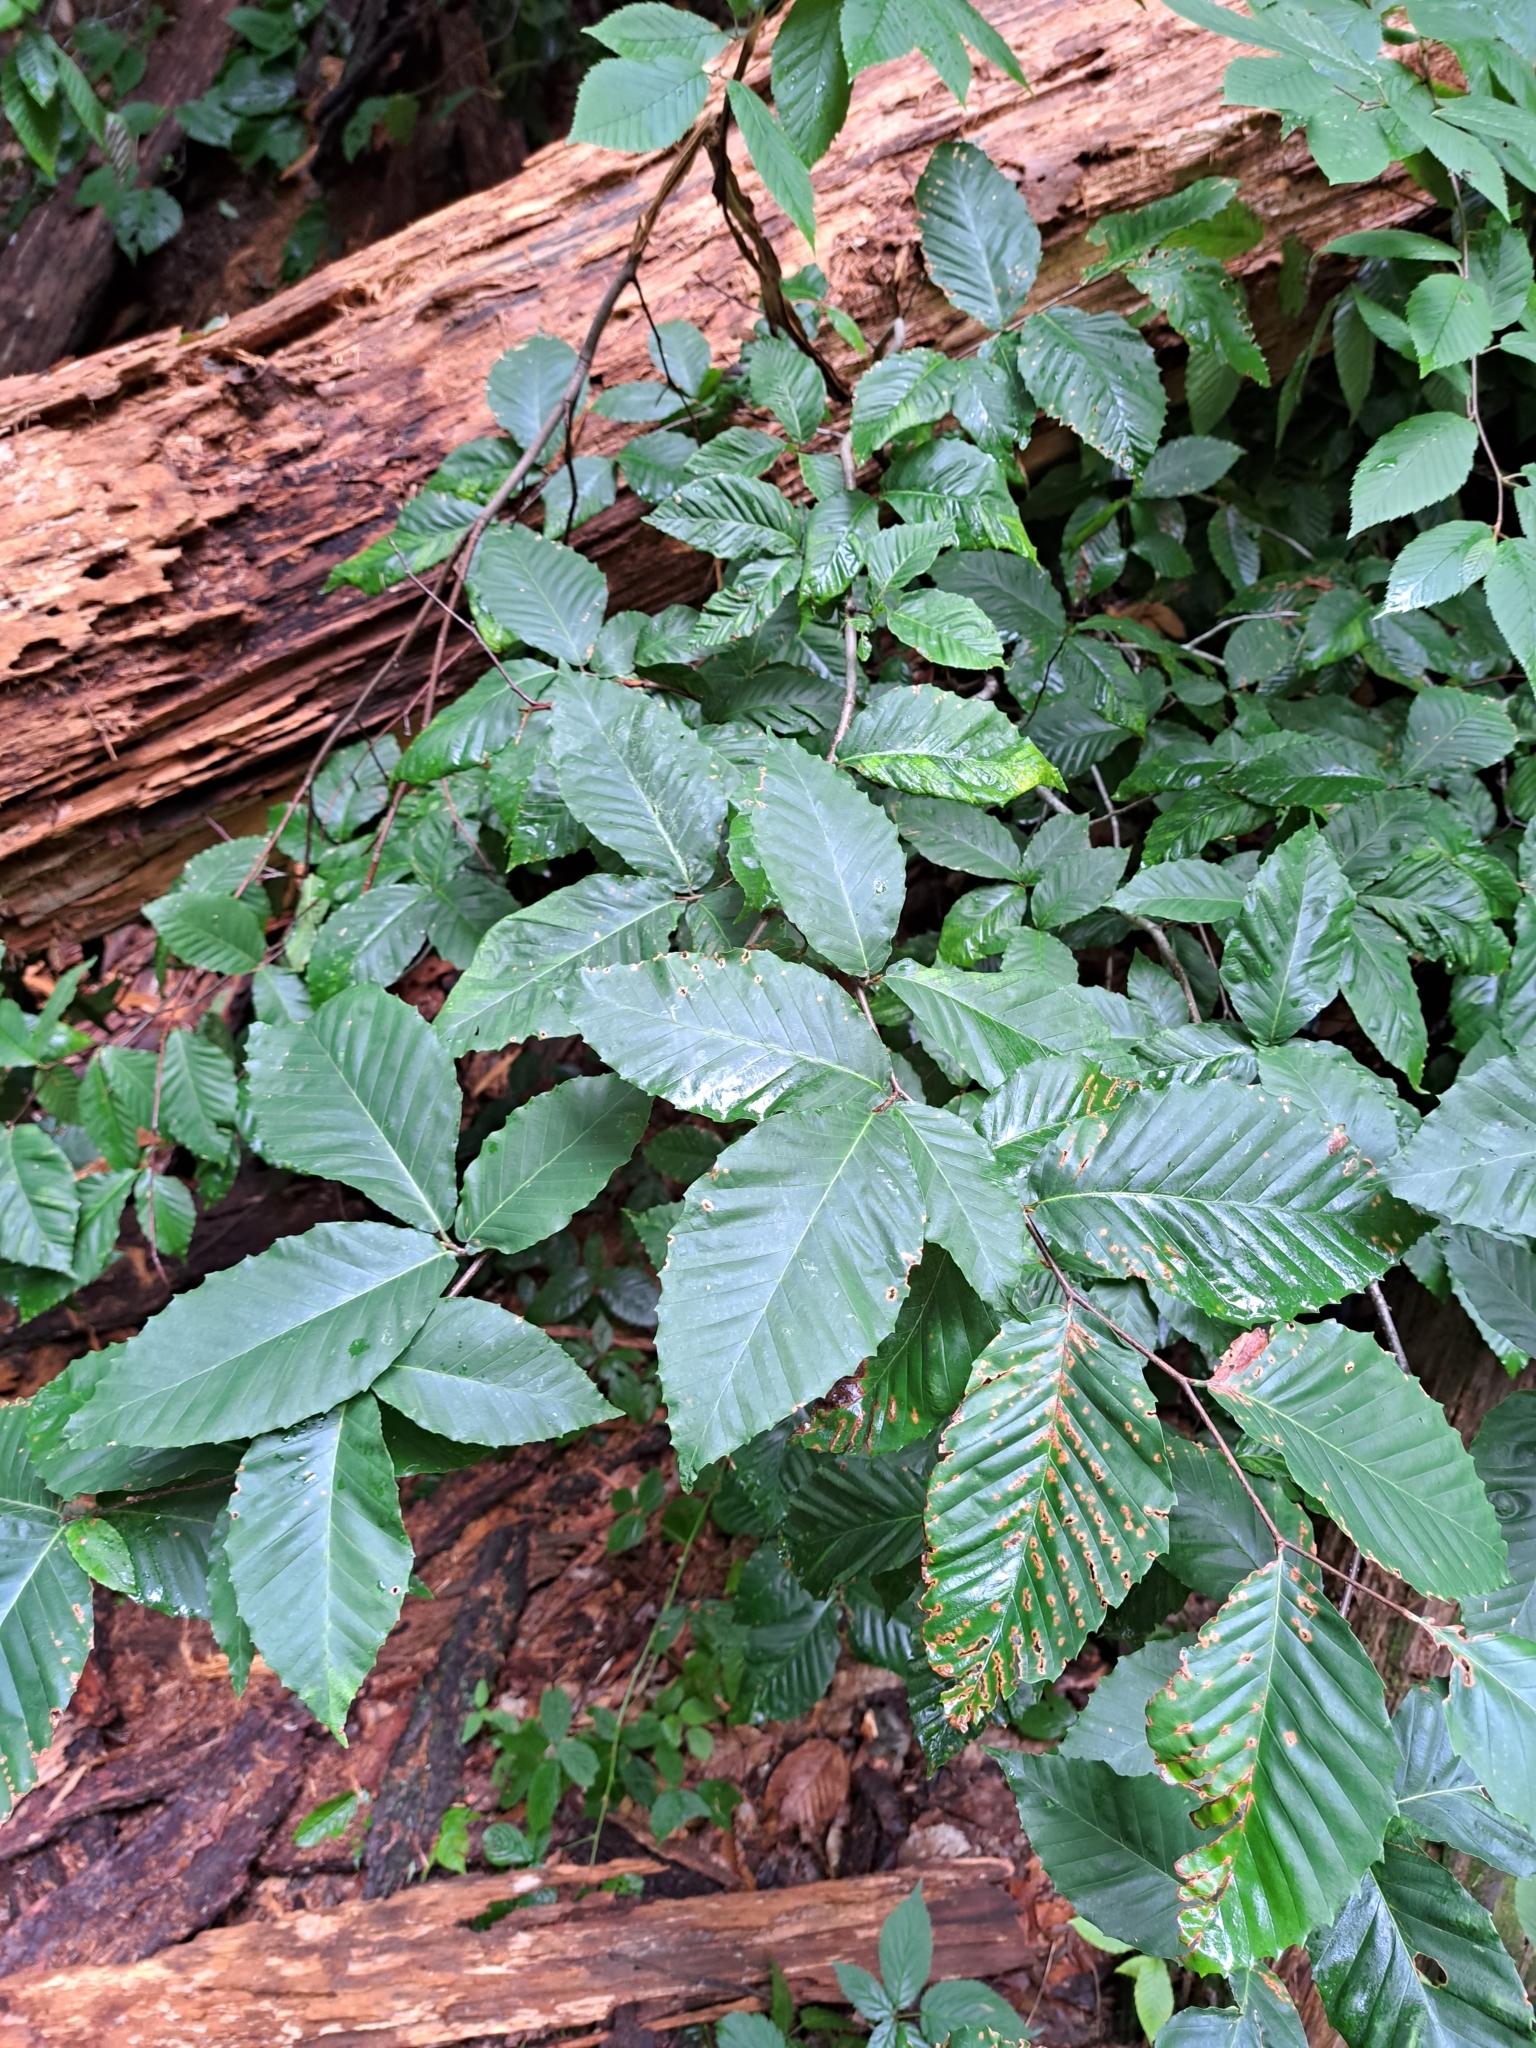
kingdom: Plantae
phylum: Tracheophyta
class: Magnoliopsida
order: Fagales
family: Fagaceae
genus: Fagus
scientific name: Fagus grandifolia
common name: American beech
